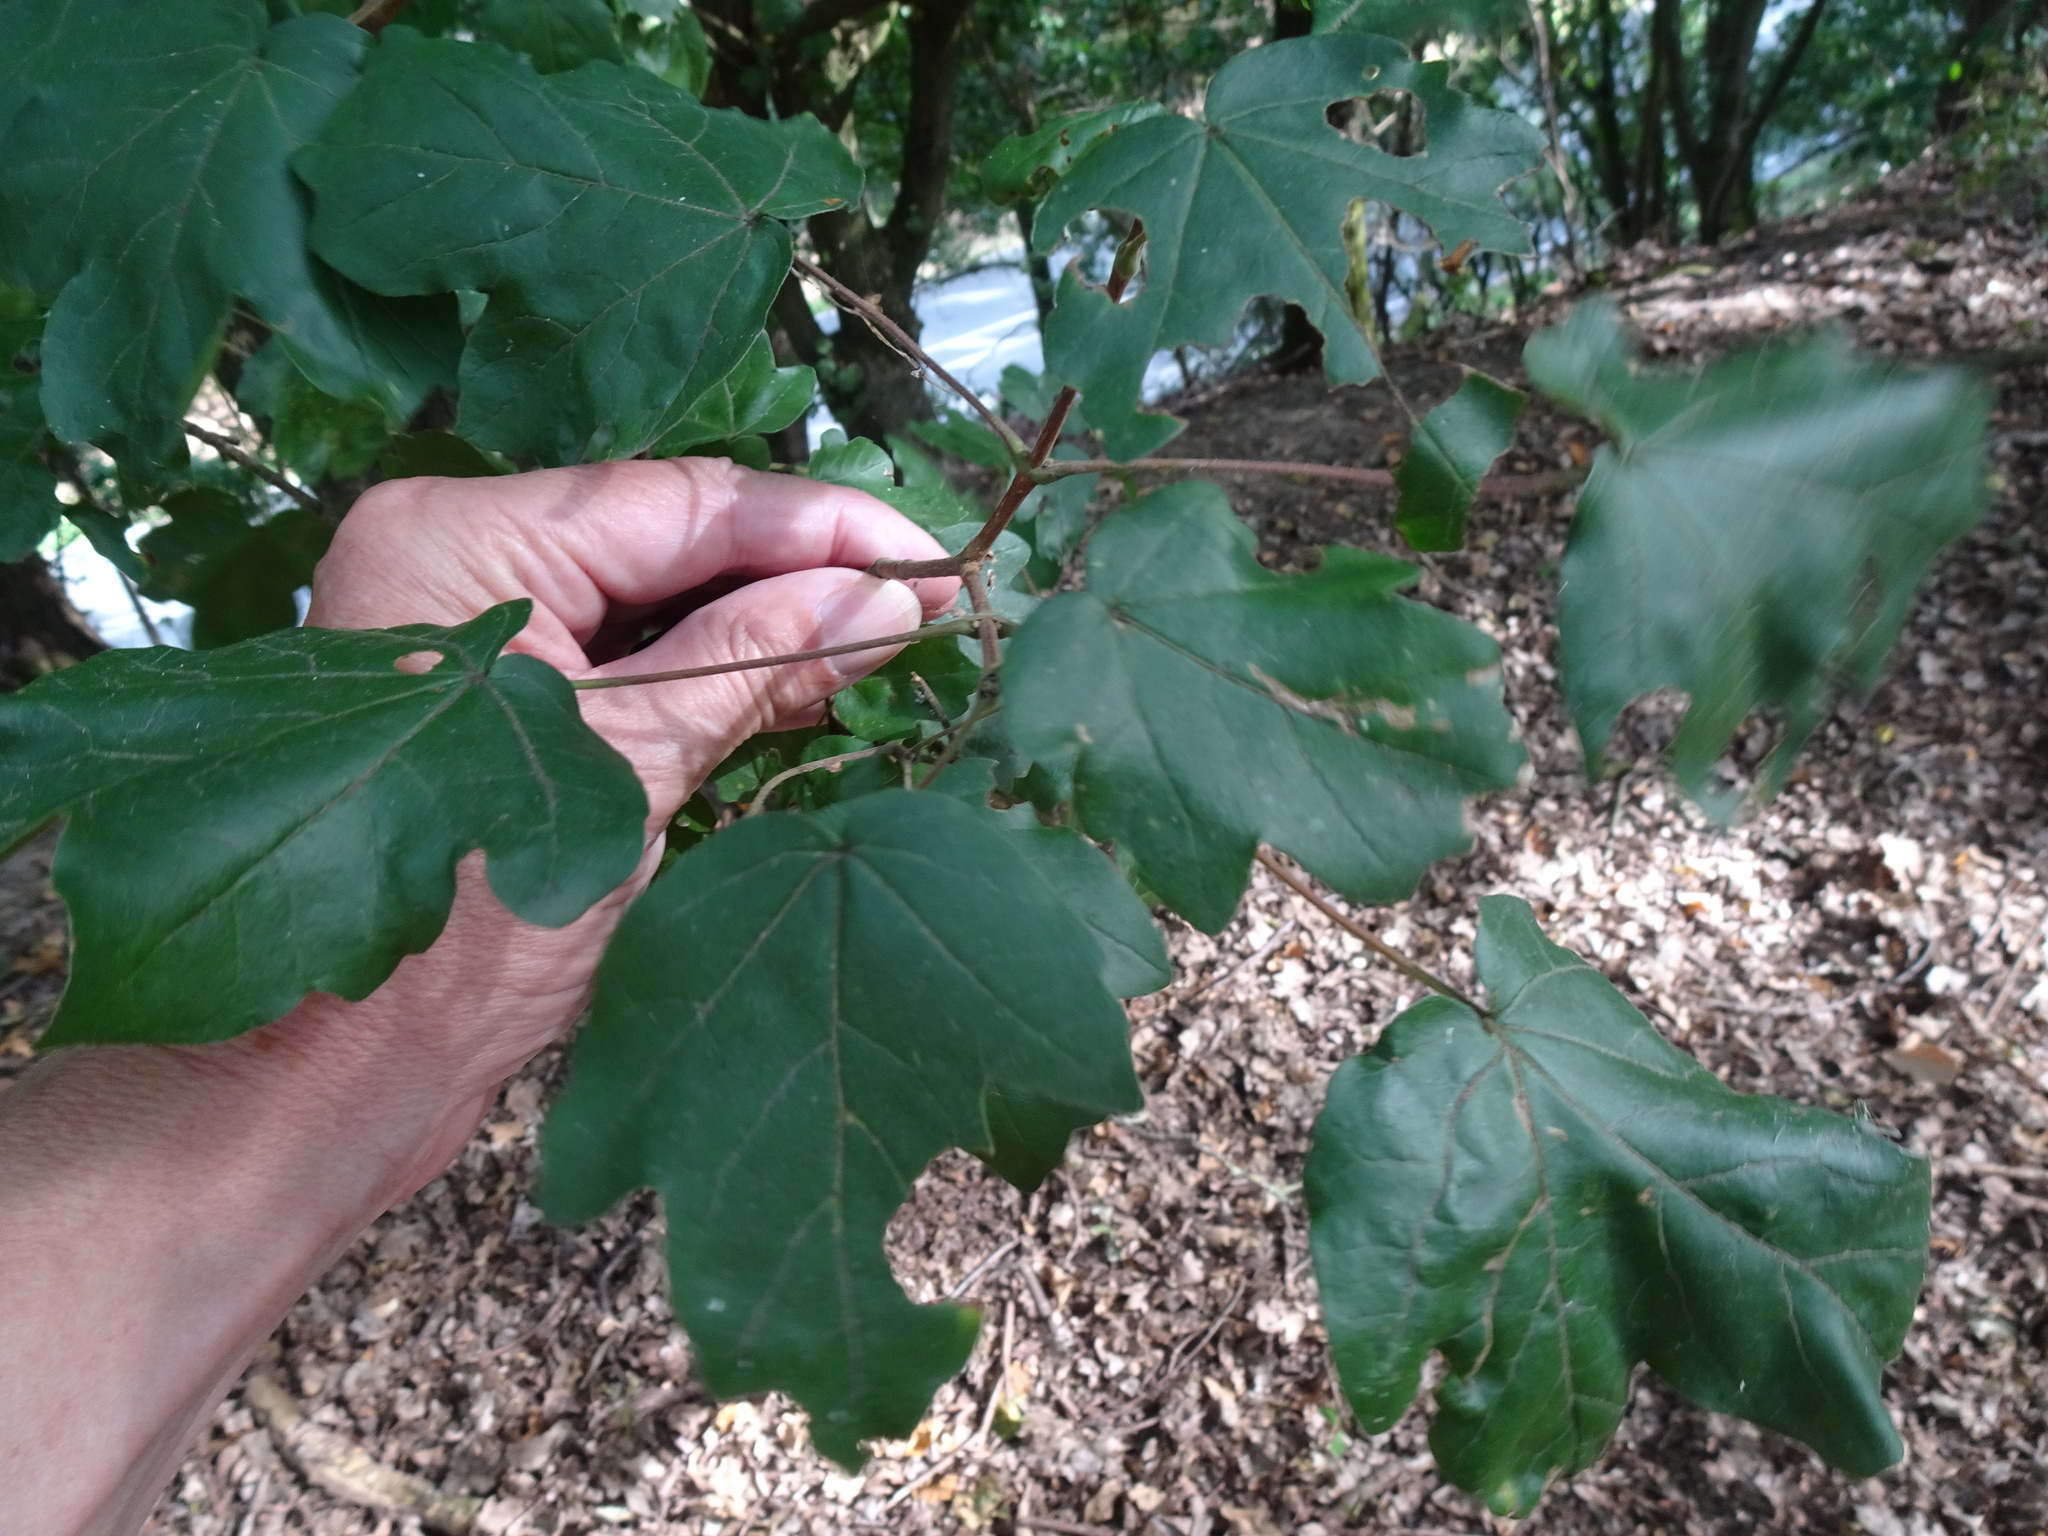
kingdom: Plantae
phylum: Tracheophyta
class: Magnoliopsida
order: Sapindales
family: Sapindaceae
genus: Acer
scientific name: Acer campestre
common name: Field maple
